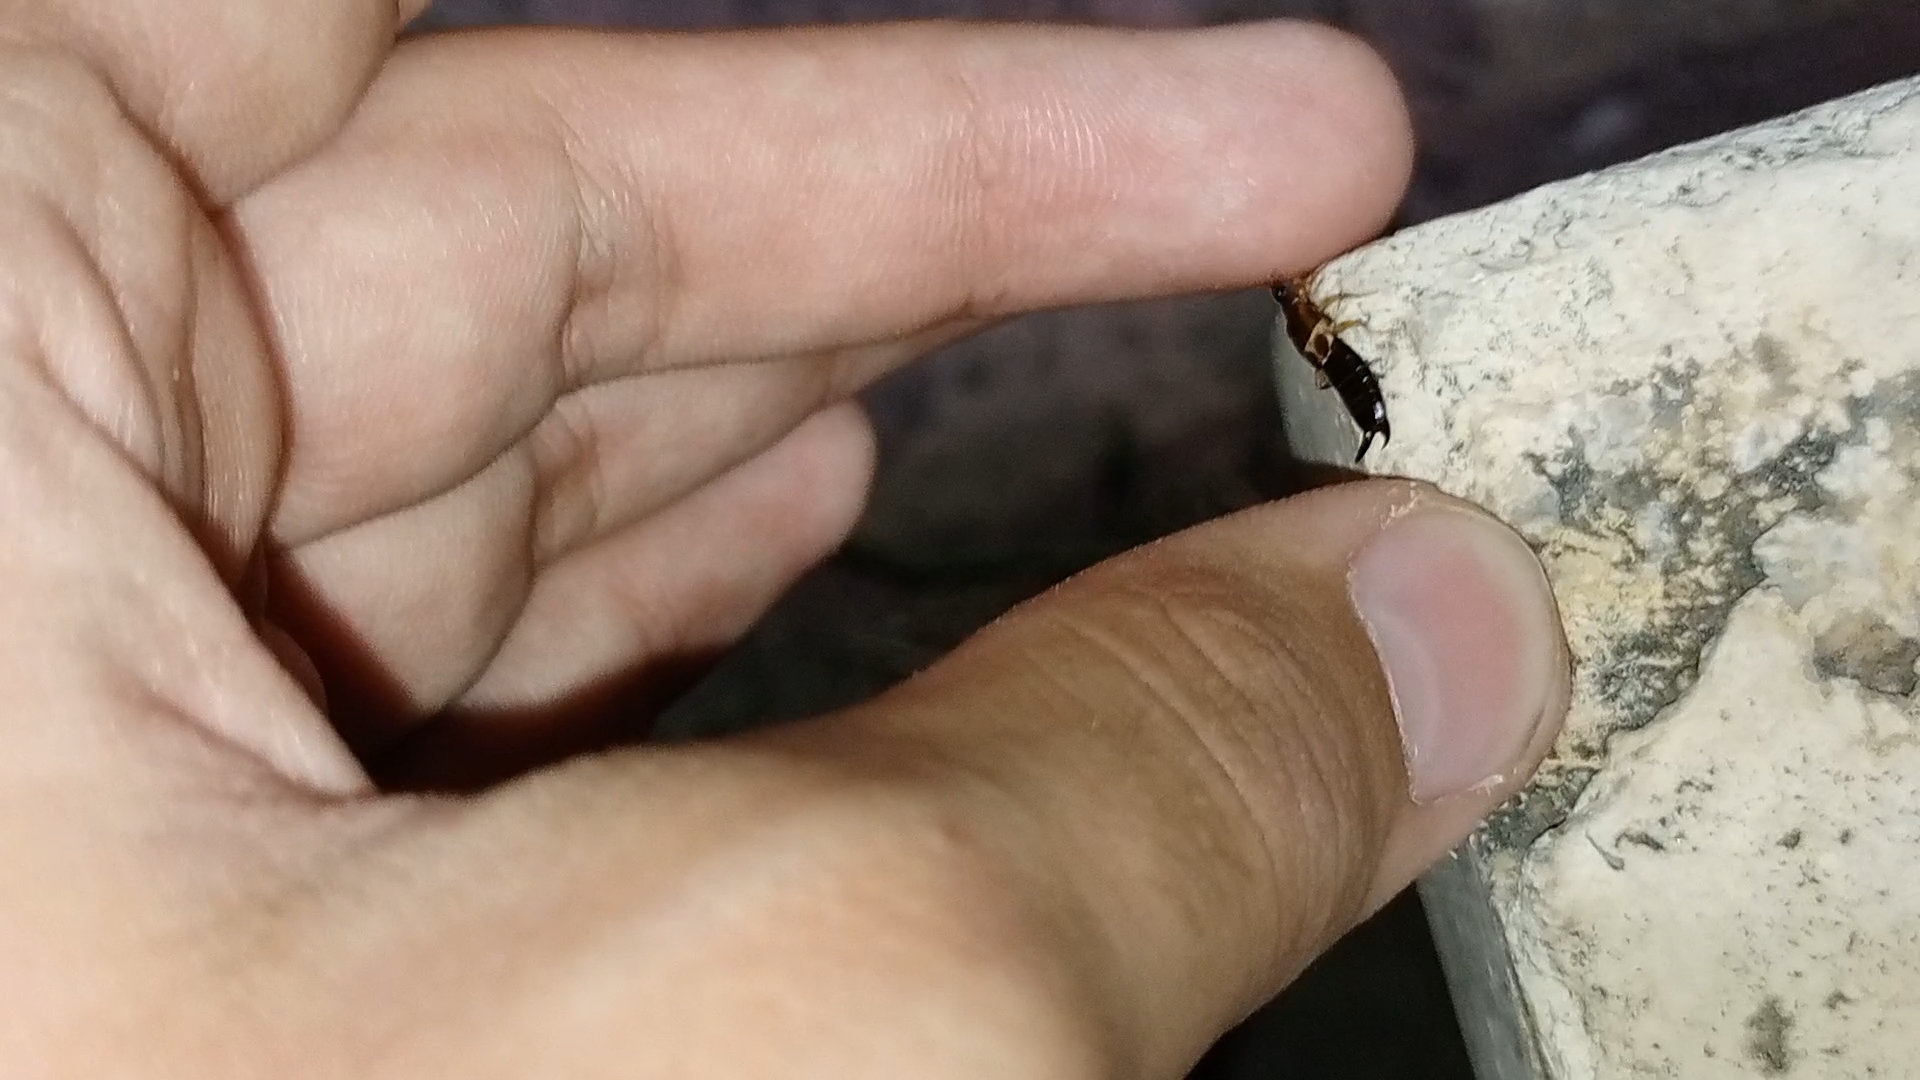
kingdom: Animalia
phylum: Arthropoda
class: Insecta
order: Dermaptera
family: Anisolabididae
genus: Euborellia
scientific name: Euborellia femoralis
